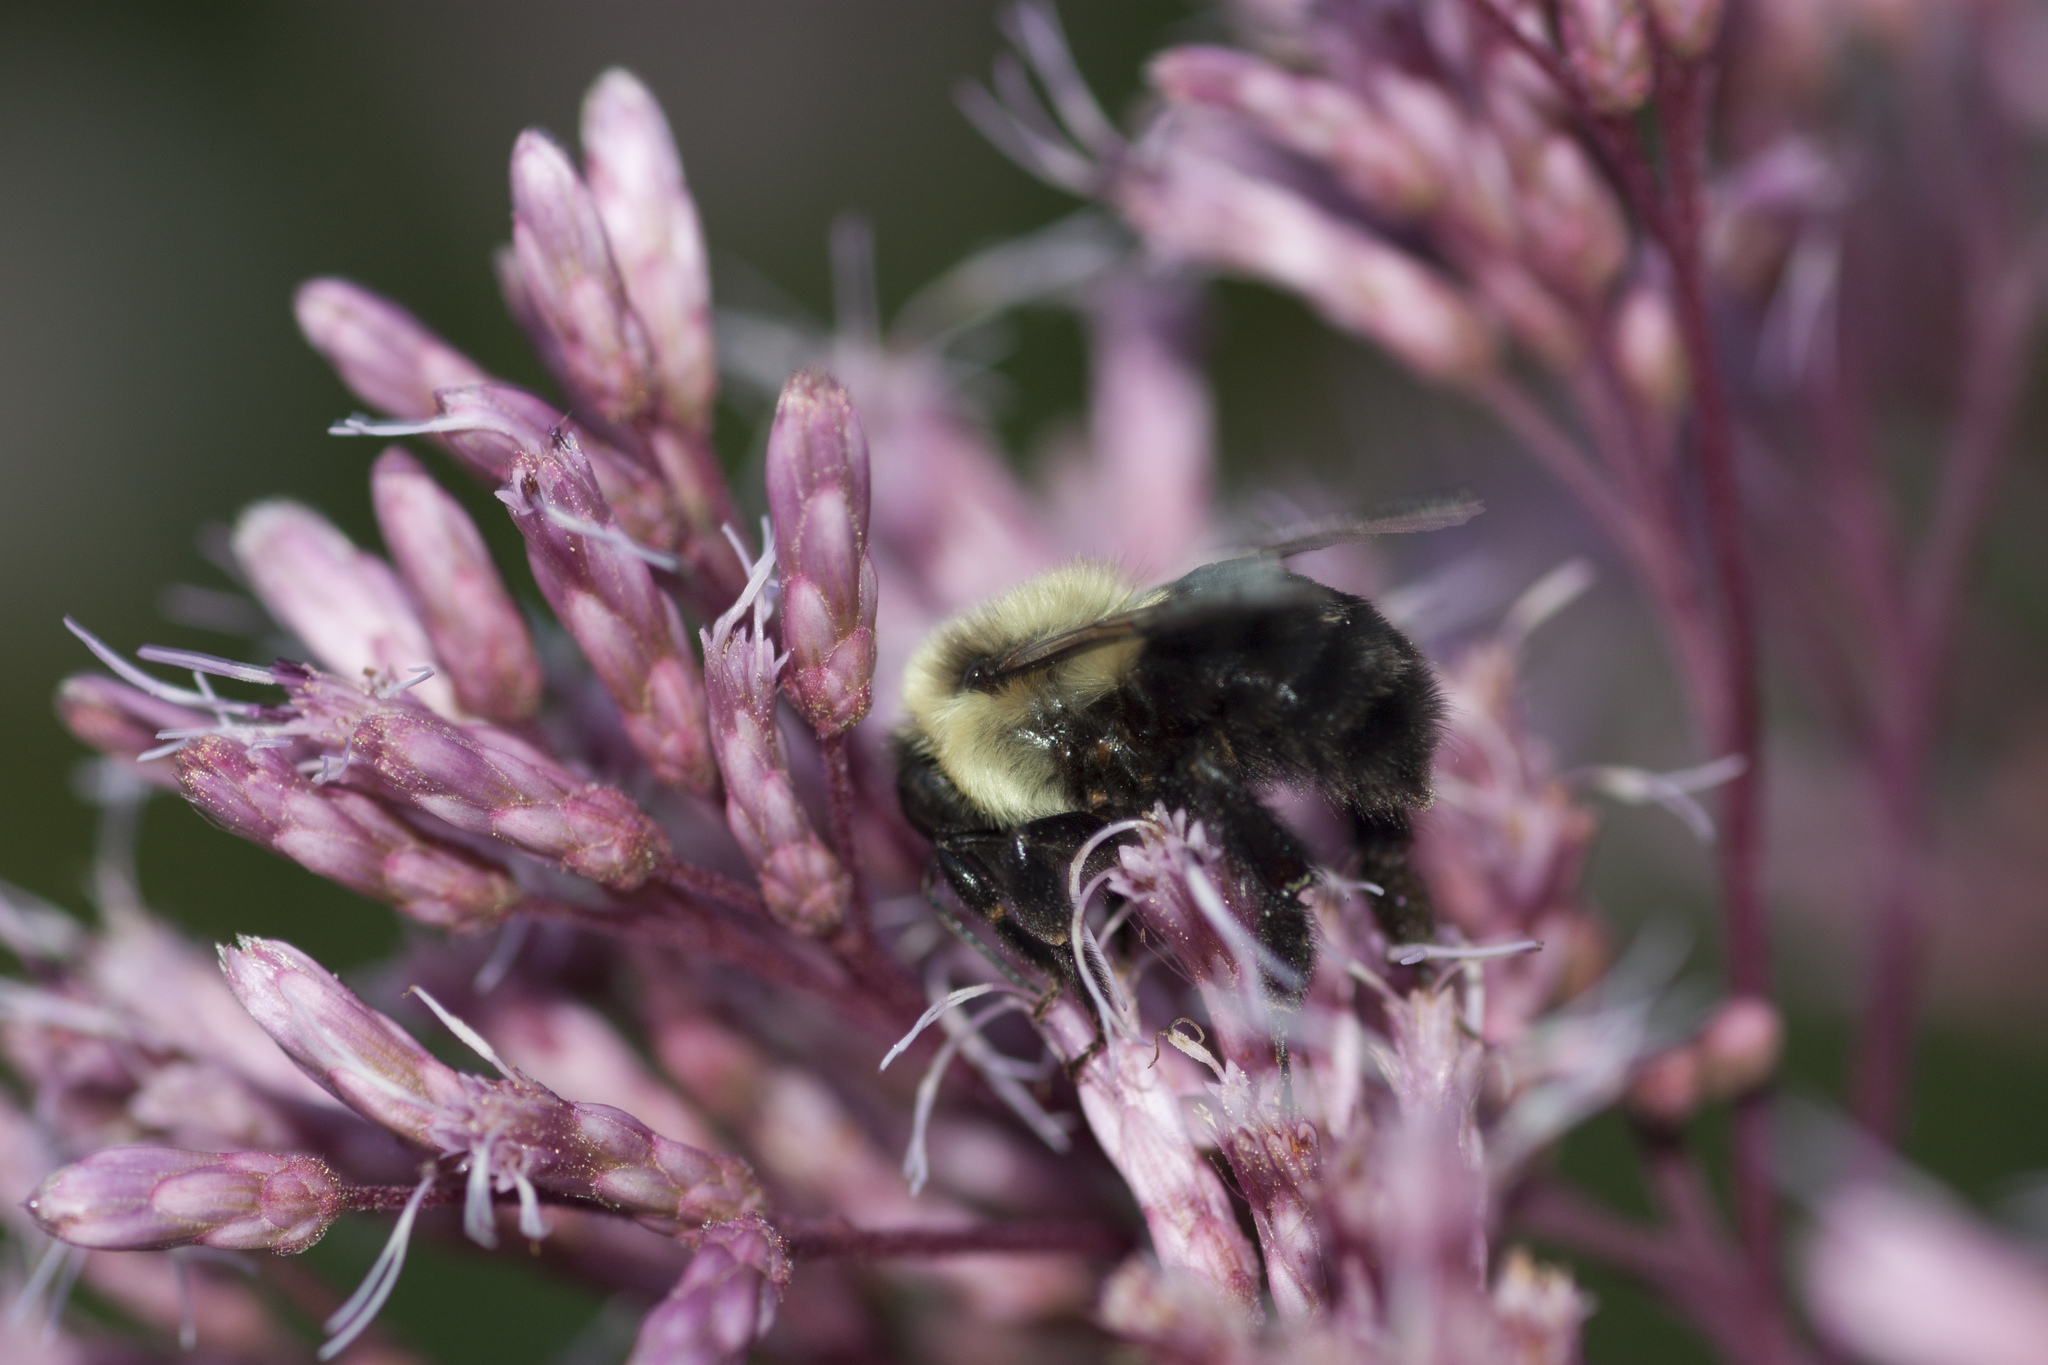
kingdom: Animalia
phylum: Arthropoda
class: Insecta
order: Hymenoptera
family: Apidae
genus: Bombus
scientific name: Bombus impatiens
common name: Common eastern bumble bee
